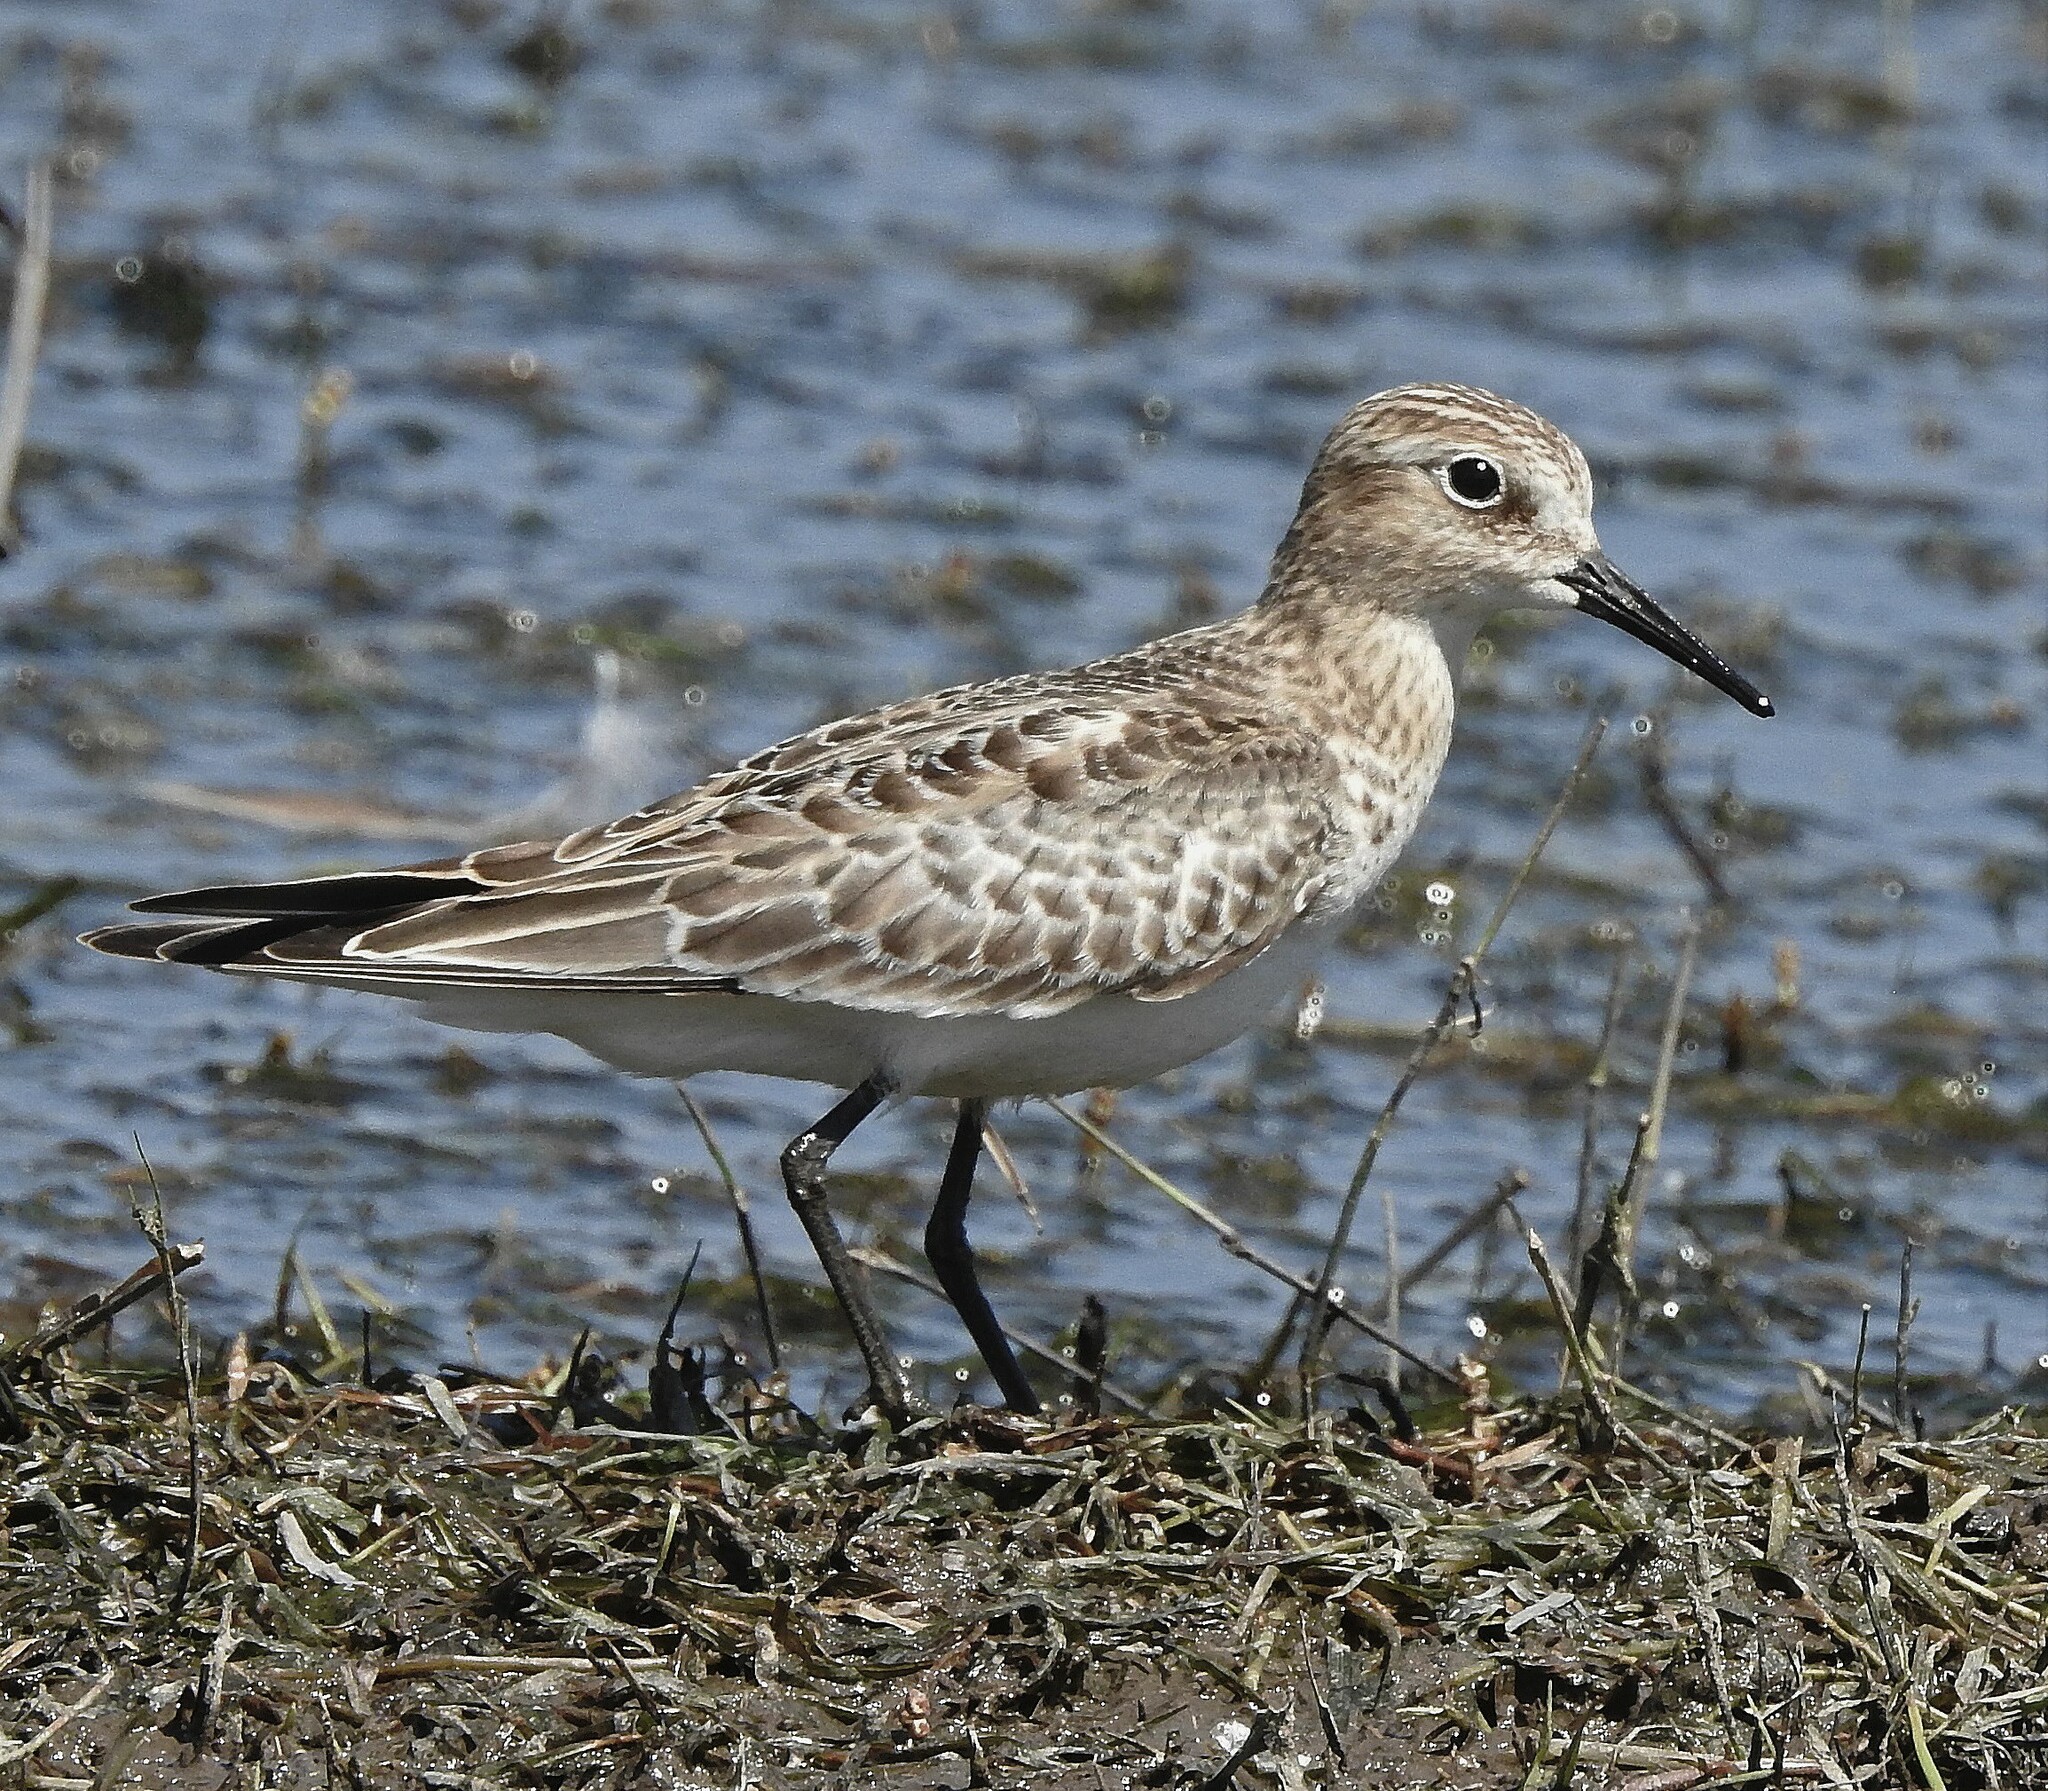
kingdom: Animalia
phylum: Chordata
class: Aves
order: Charadriiformes
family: Scolopacidae
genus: Calidris
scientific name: Calidris bairdii
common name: Baird's sandpiper
